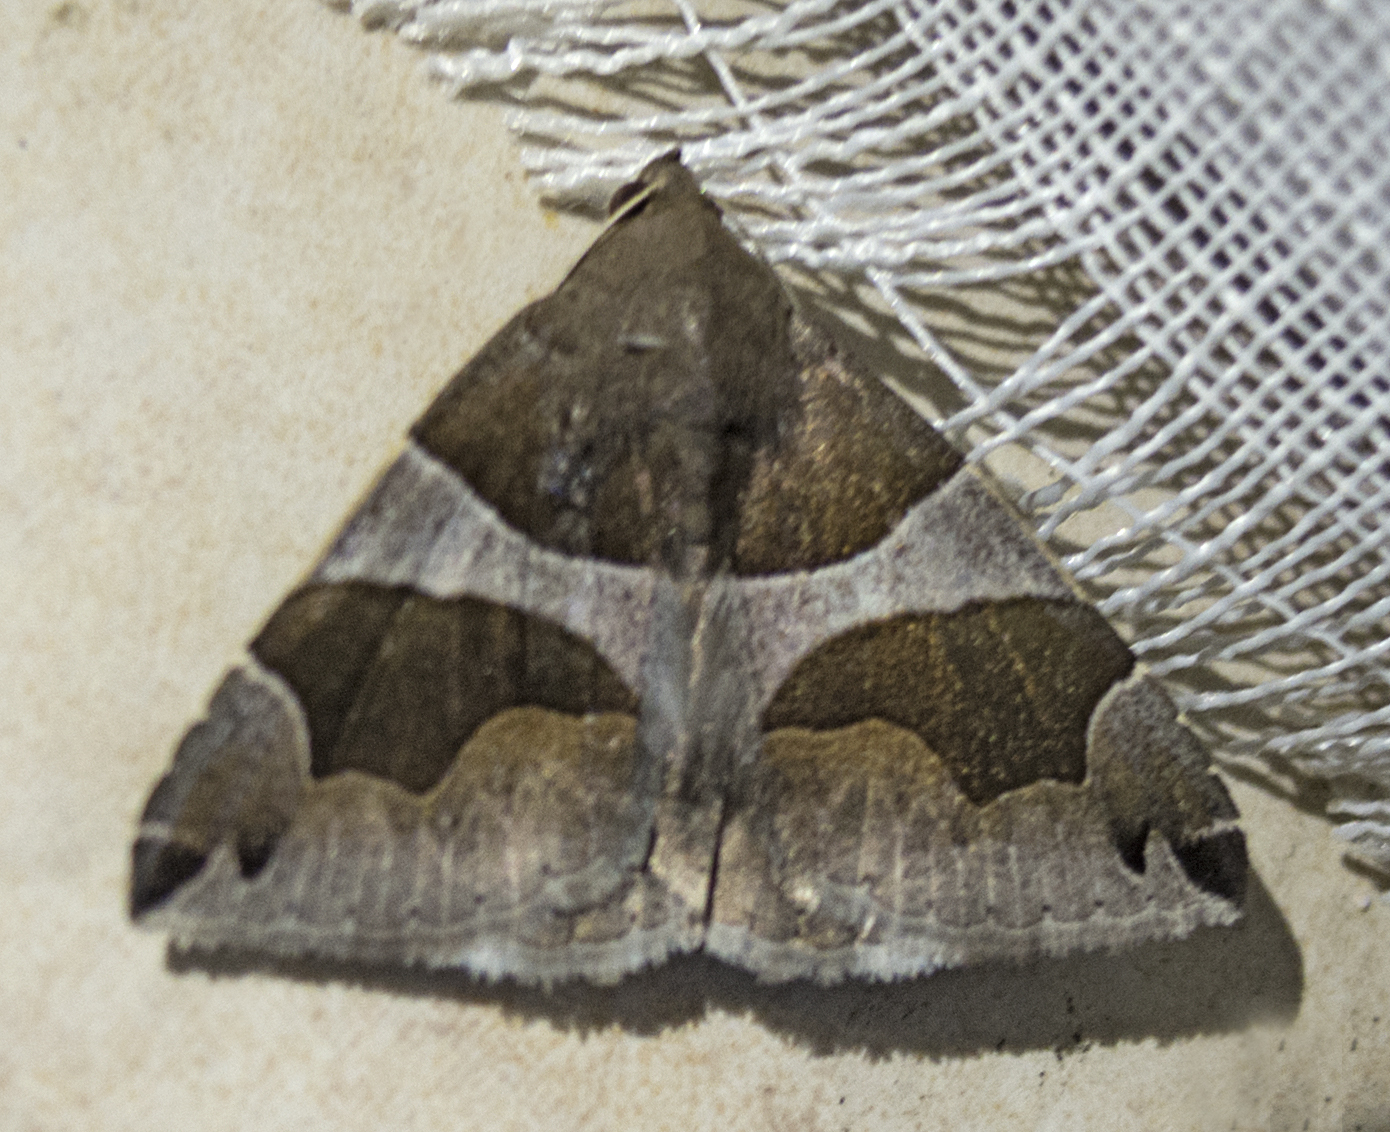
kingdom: Animalia
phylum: Arthropoda
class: Insecta
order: Lepidoptera
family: Erebidae
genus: Dysgonia
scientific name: Dysgonia algira
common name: Passenger
